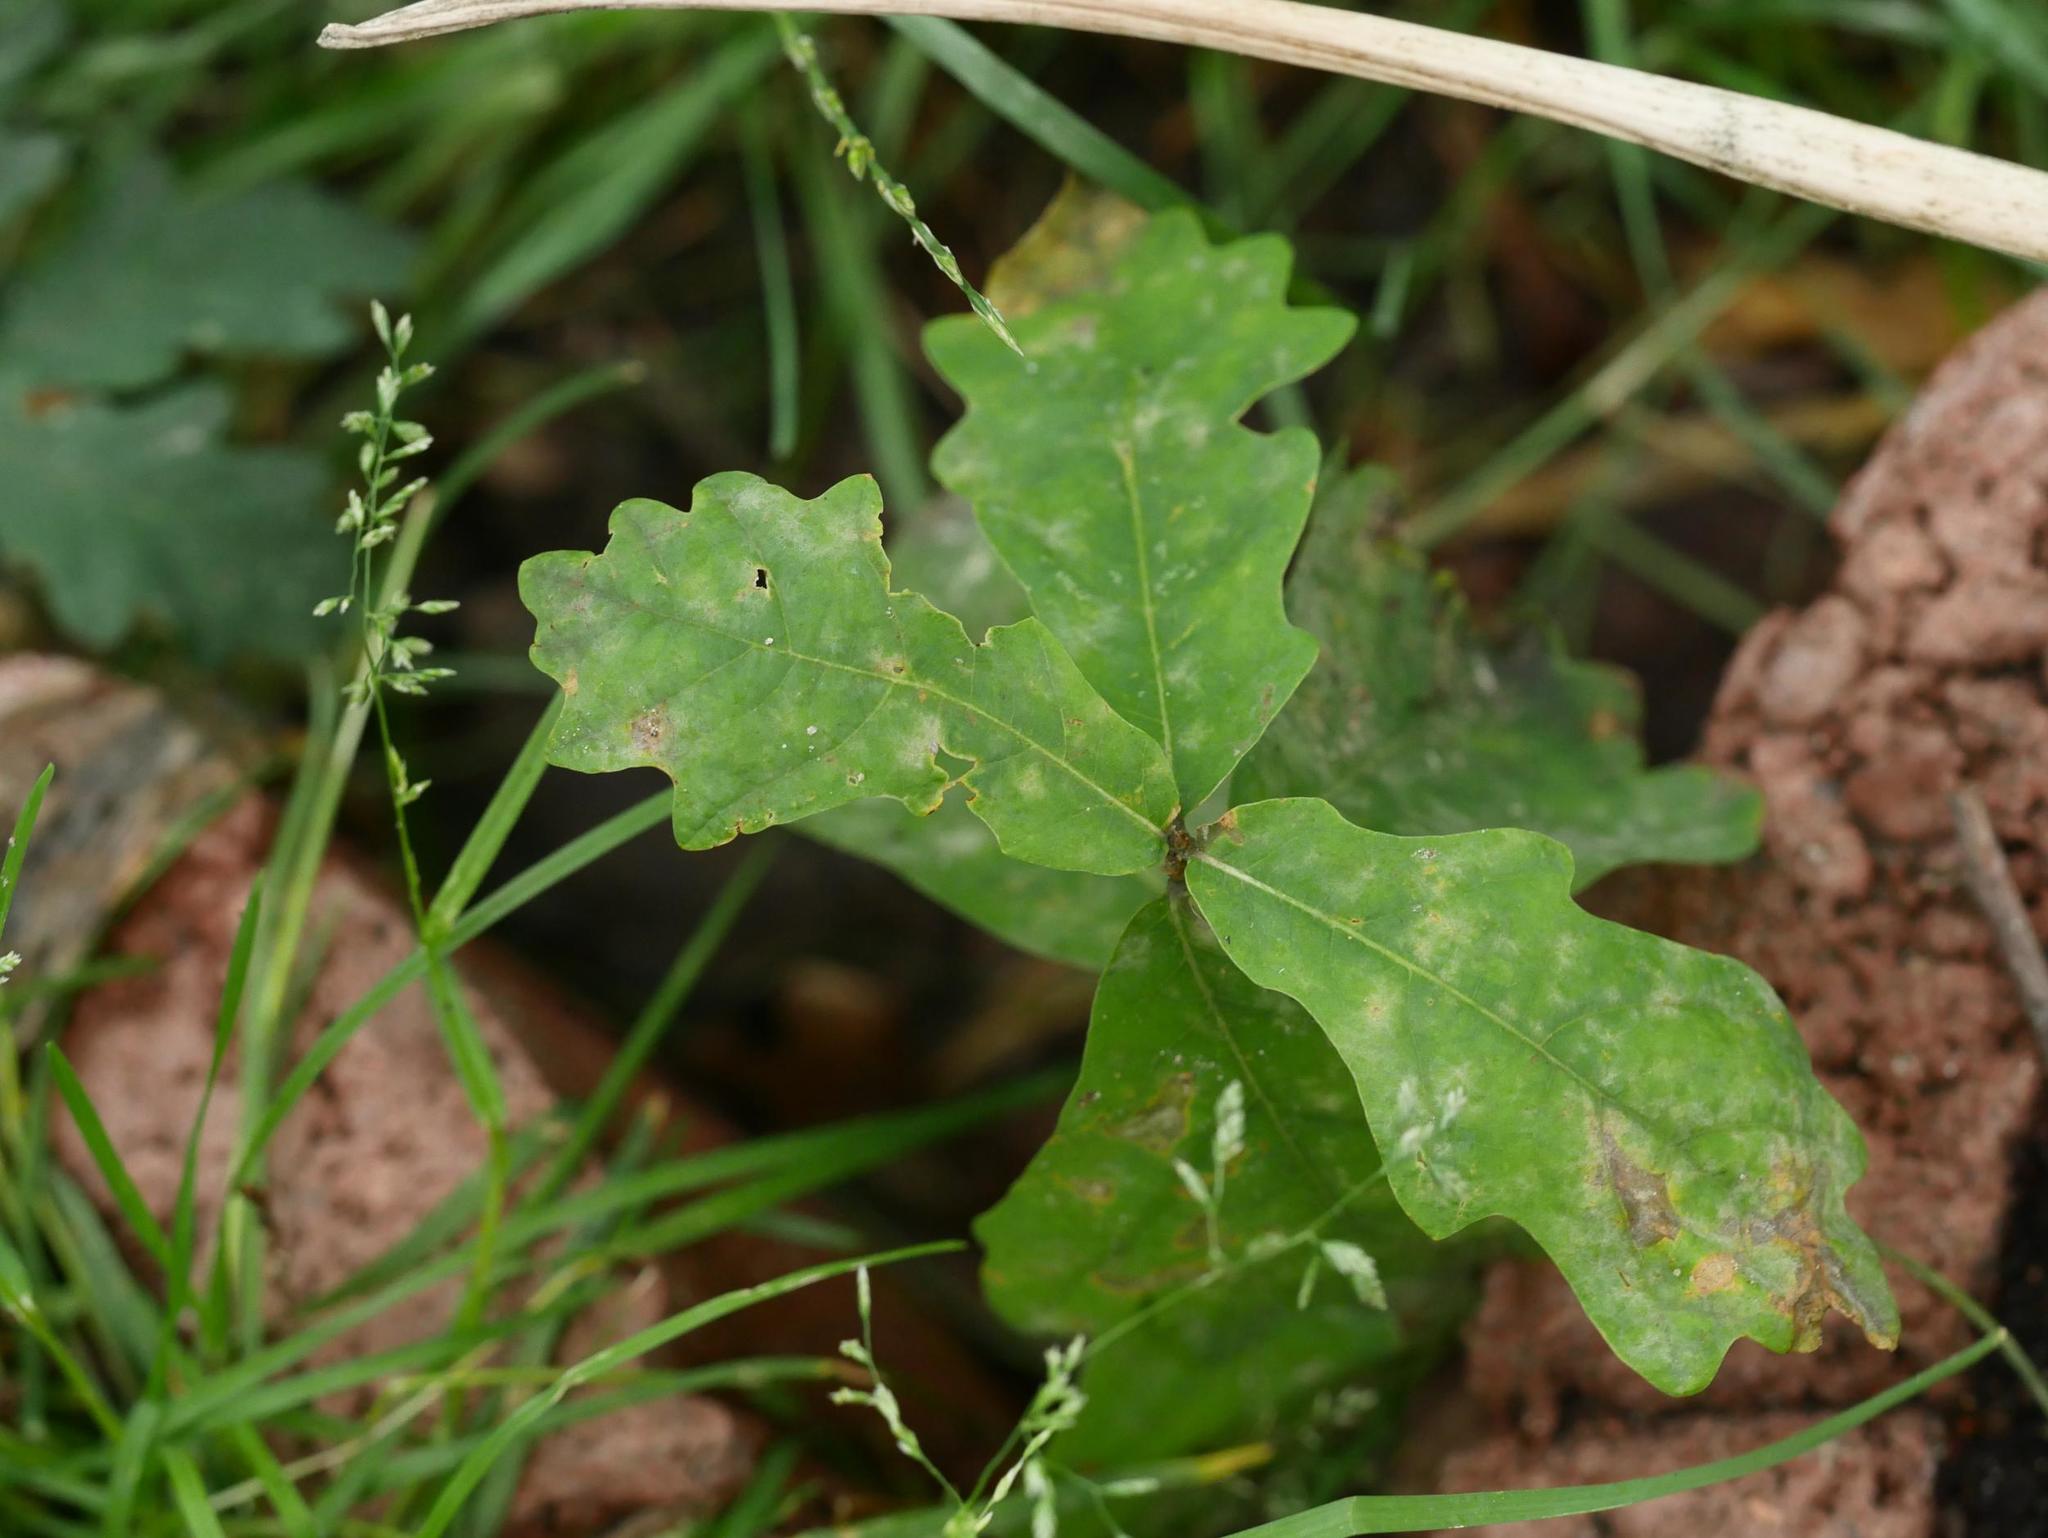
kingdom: Plantae
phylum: Tracheophyta
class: Magnoliopsida
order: Fagales
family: Fagaceae
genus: Quercus
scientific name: Quercus robur
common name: Pedunculate oak
